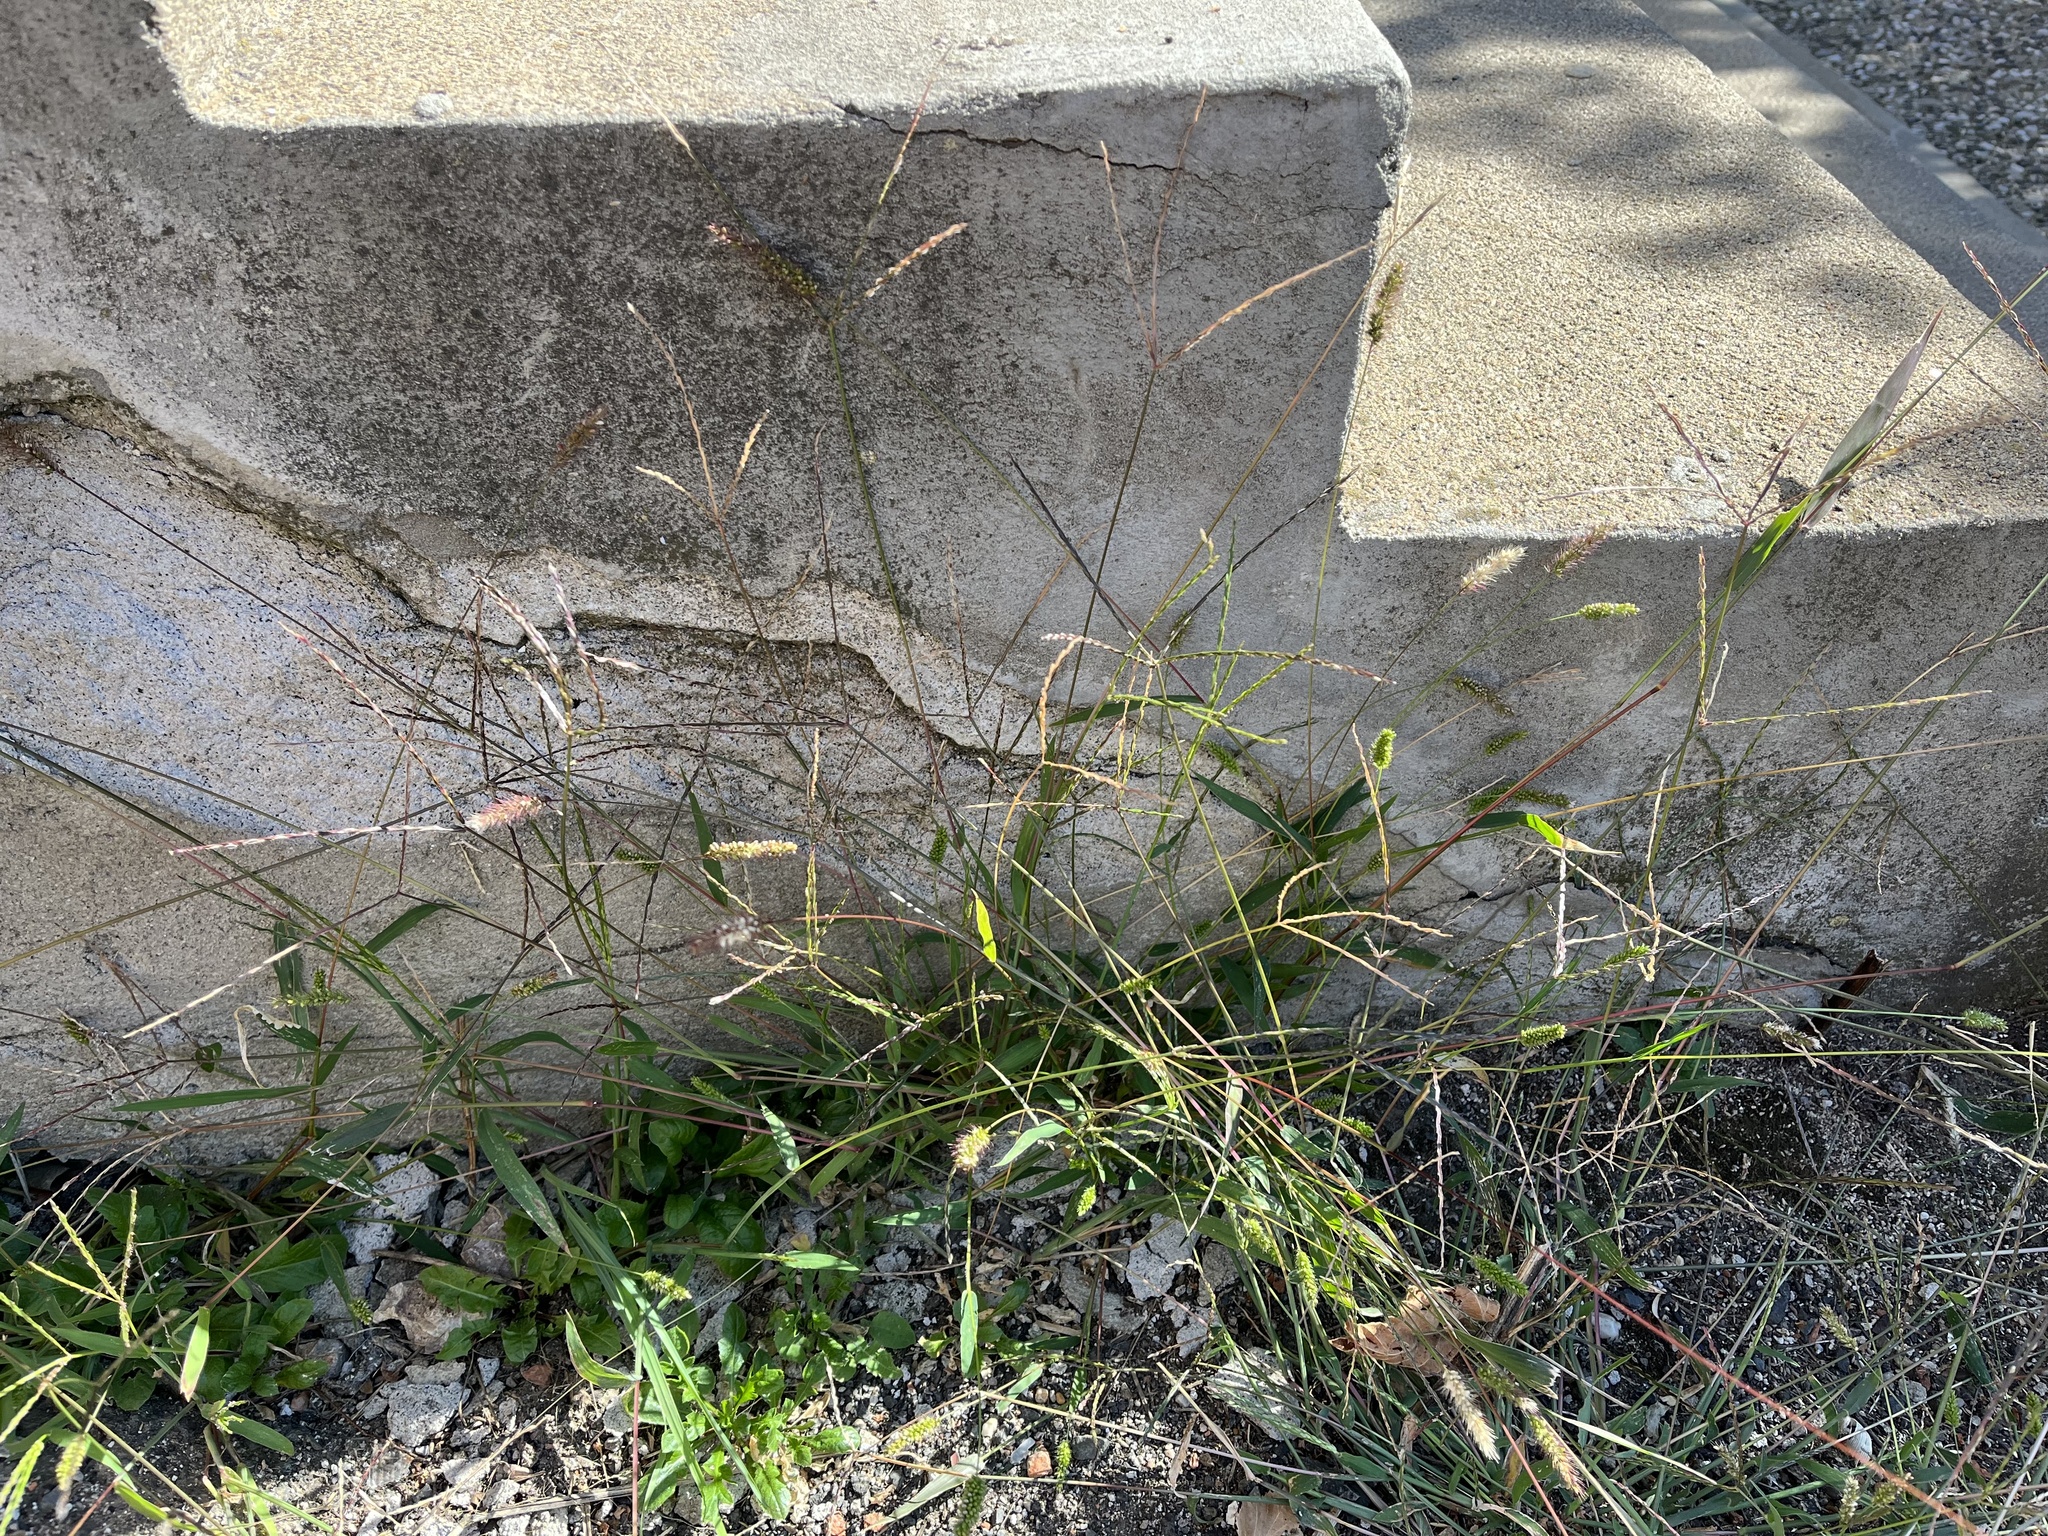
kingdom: Plantae
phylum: Tracheophyta
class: Liliopsida
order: Poales
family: Poaceae
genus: Digitaria
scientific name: Digitaria sanguinalis
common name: Hairy crabgrass
